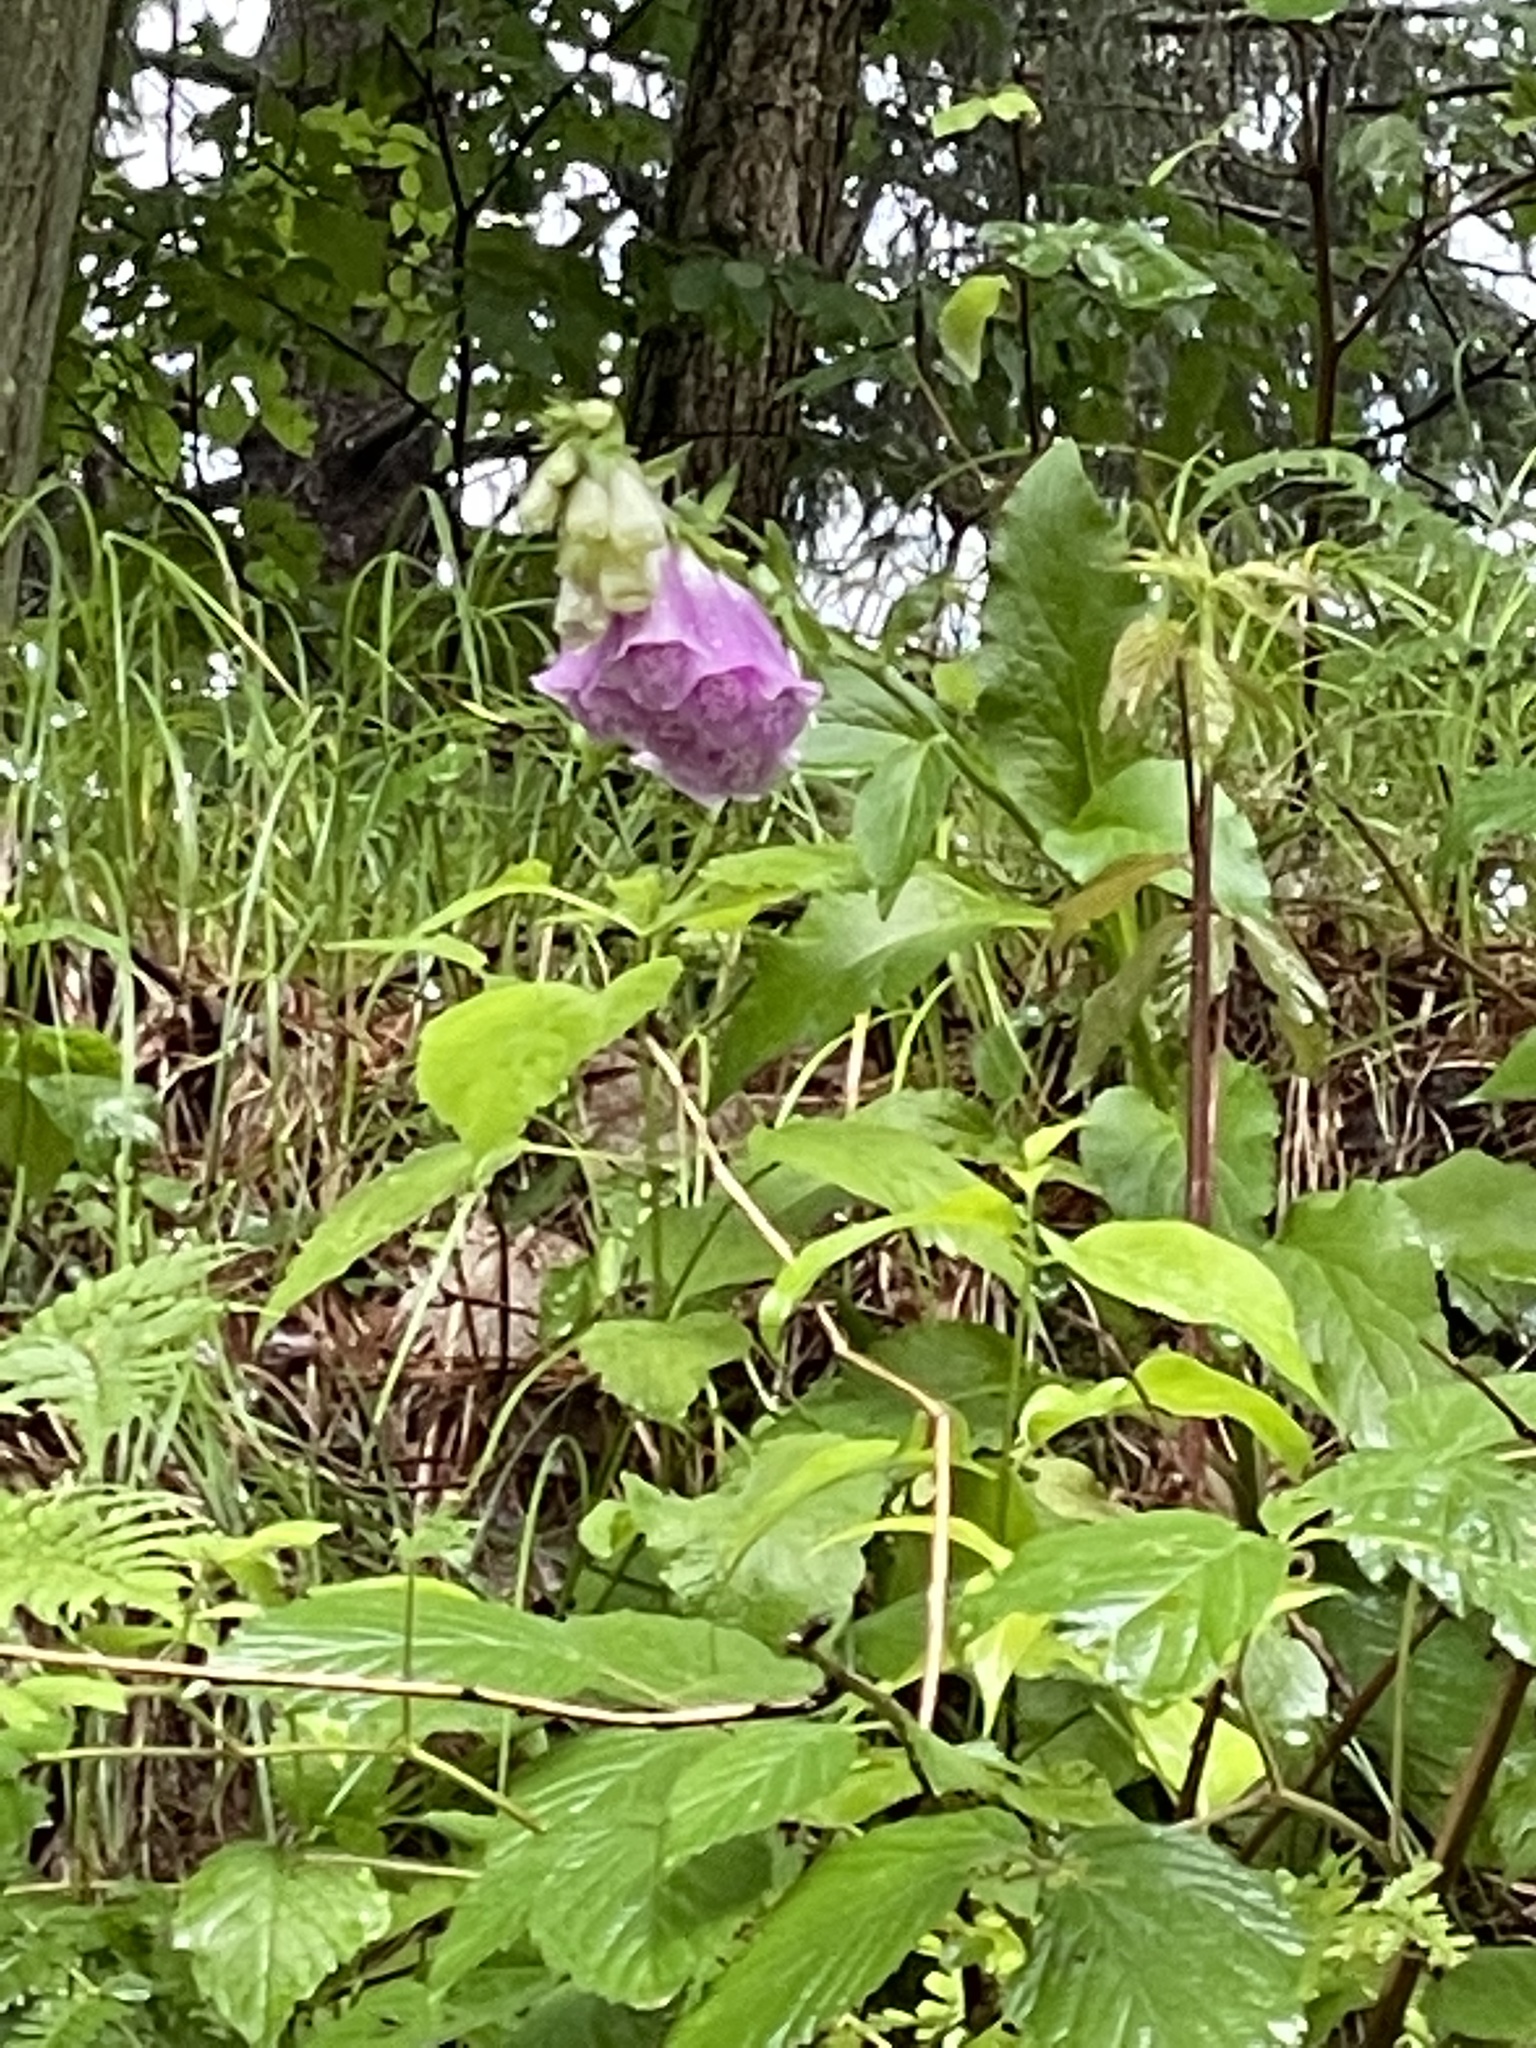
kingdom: Plantae
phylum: Tracheophyta
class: Magnoliopsida
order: Lamiales
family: Plantaginaceae
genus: Digitalis
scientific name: Digitalis purpurea
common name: Foxglove
